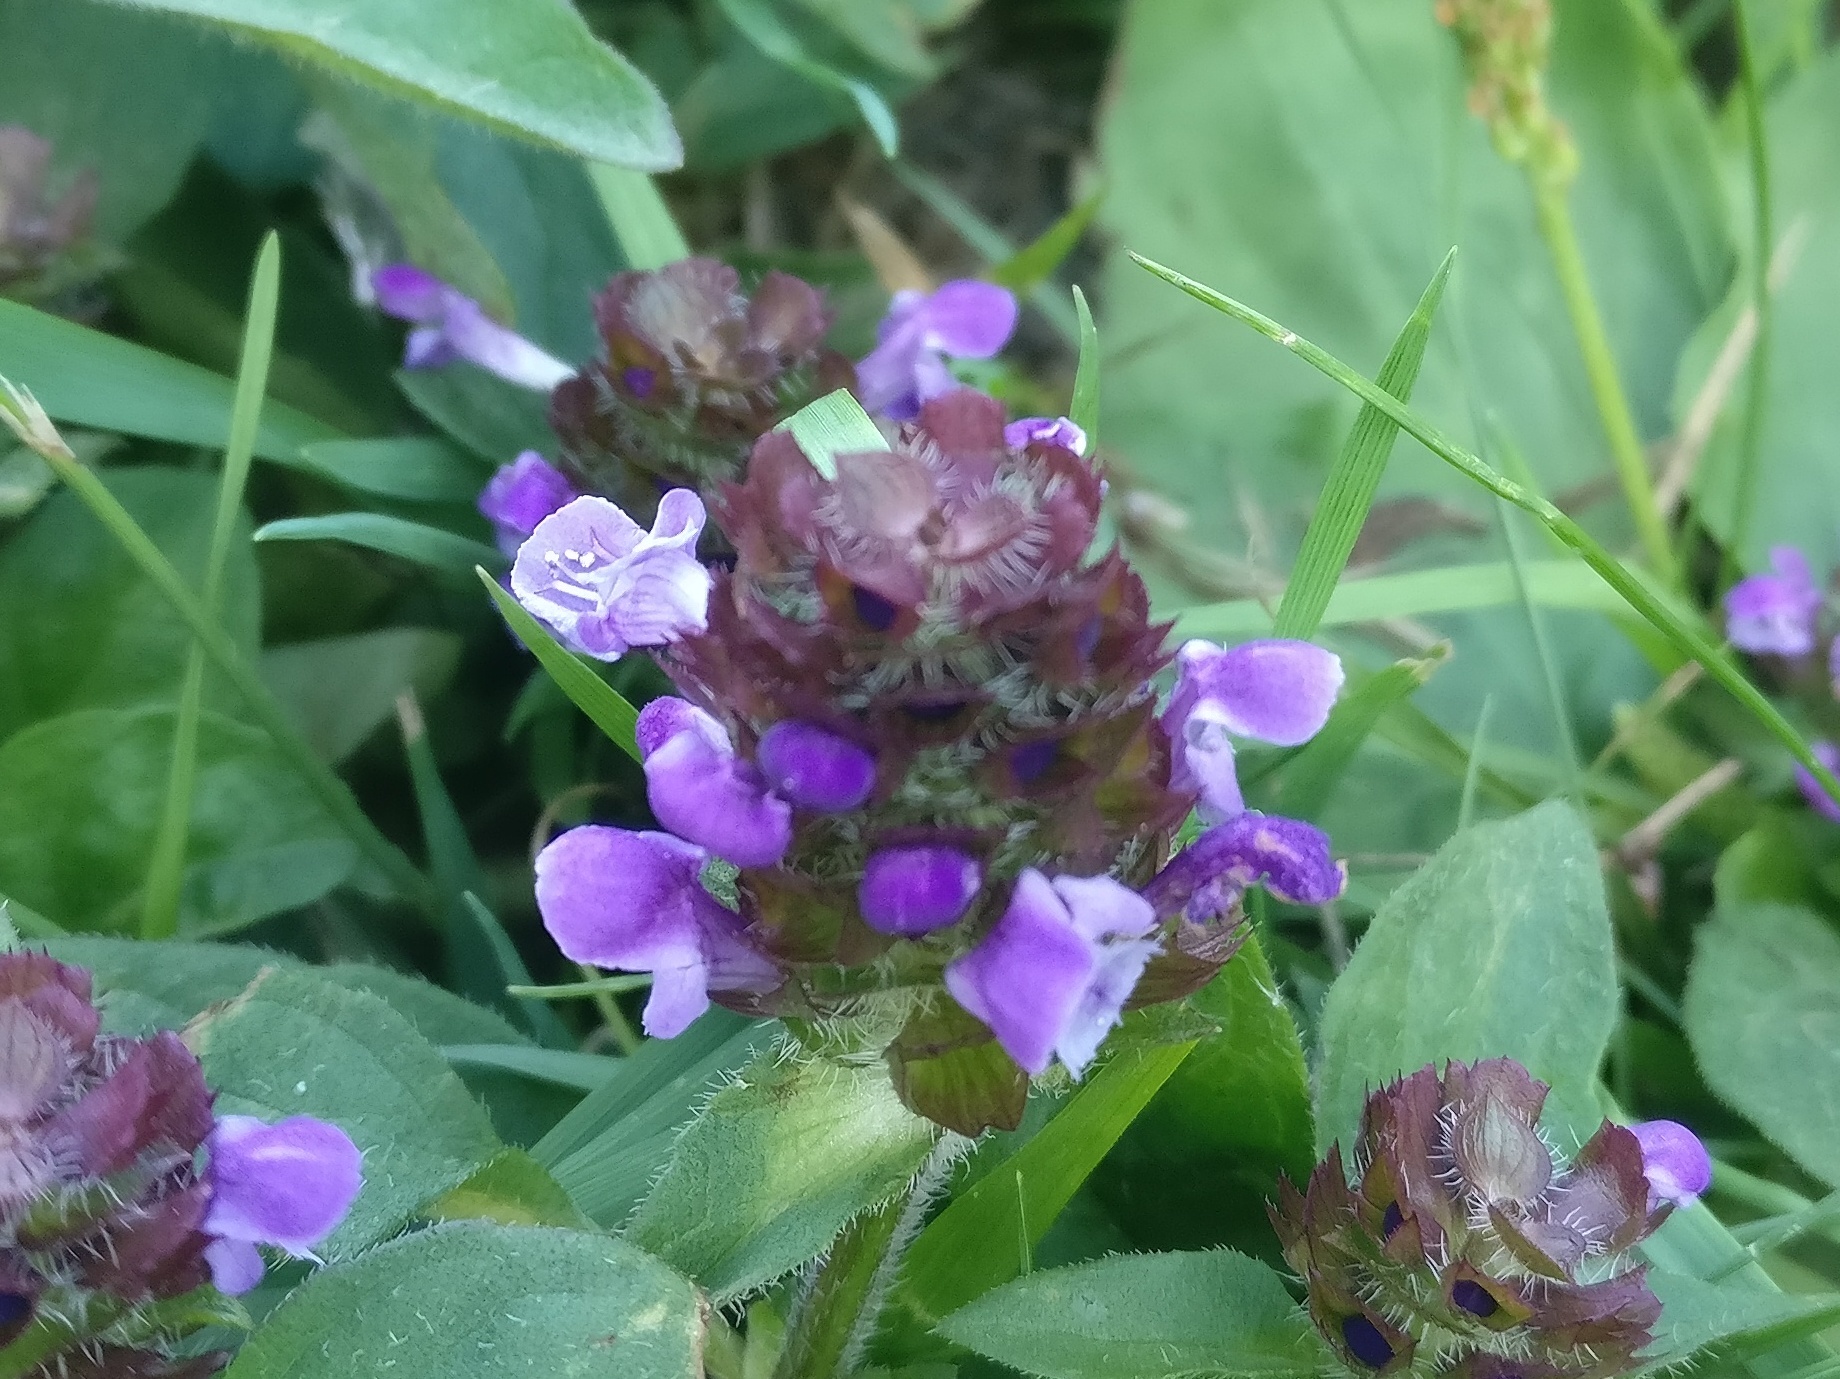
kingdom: Plantae
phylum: Tracheophyta
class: Magnoliopsida
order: Lamiales
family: Lamiaceae
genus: Prunella
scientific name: Prunella vulgaris
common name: Heal-all
